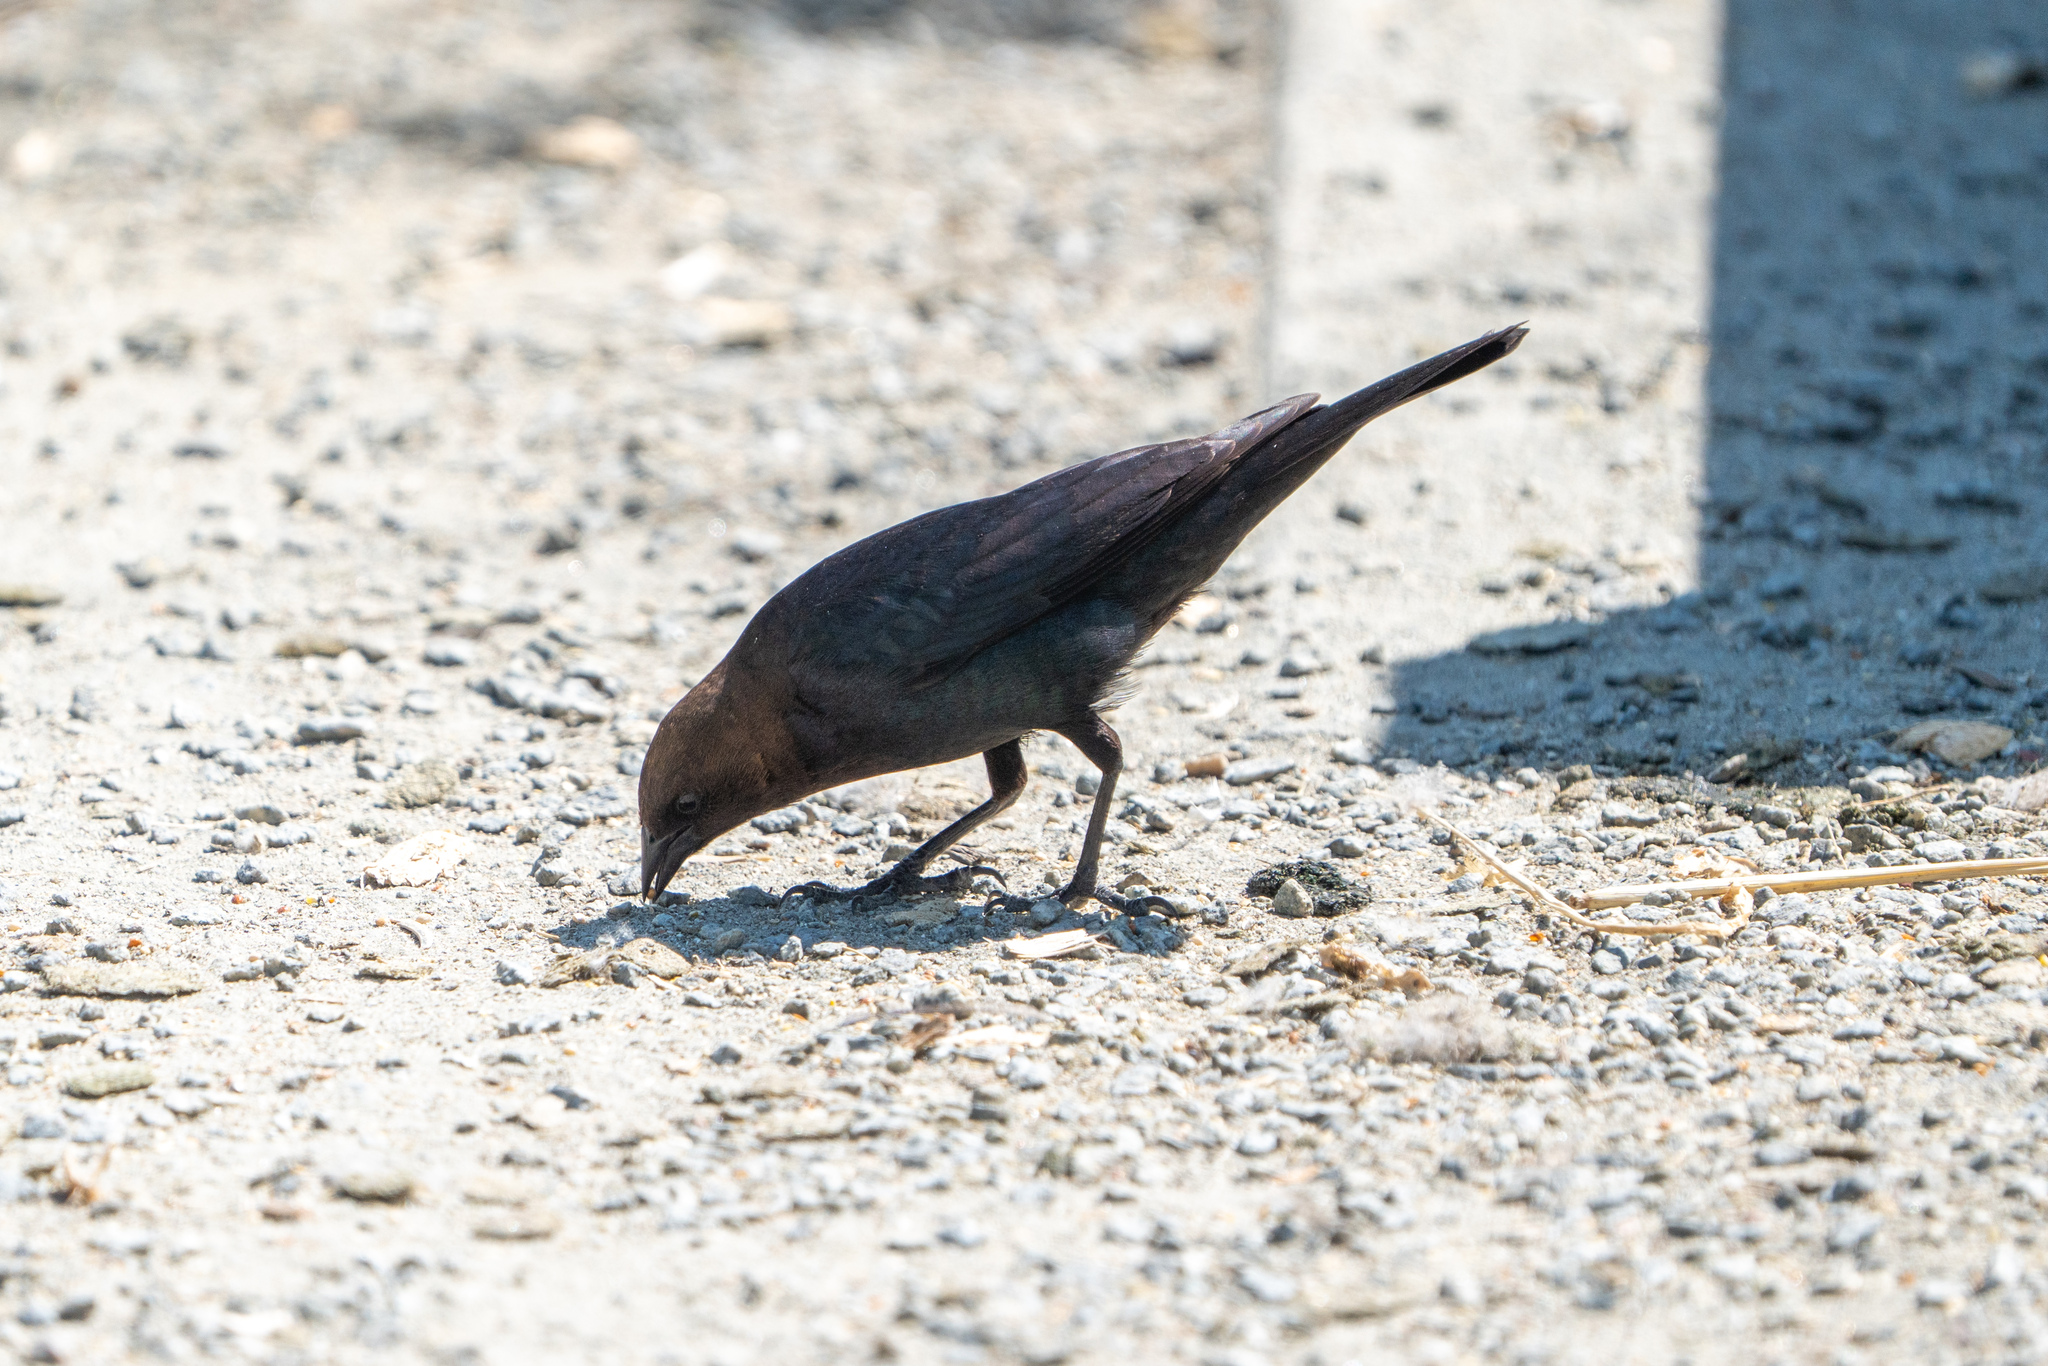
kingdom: Animalia
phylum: Chordata
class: Aves
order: Passeriformes
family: Icteridae
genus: Molothrus
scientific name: Molothrus ater
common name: Brown-headed cowbird
